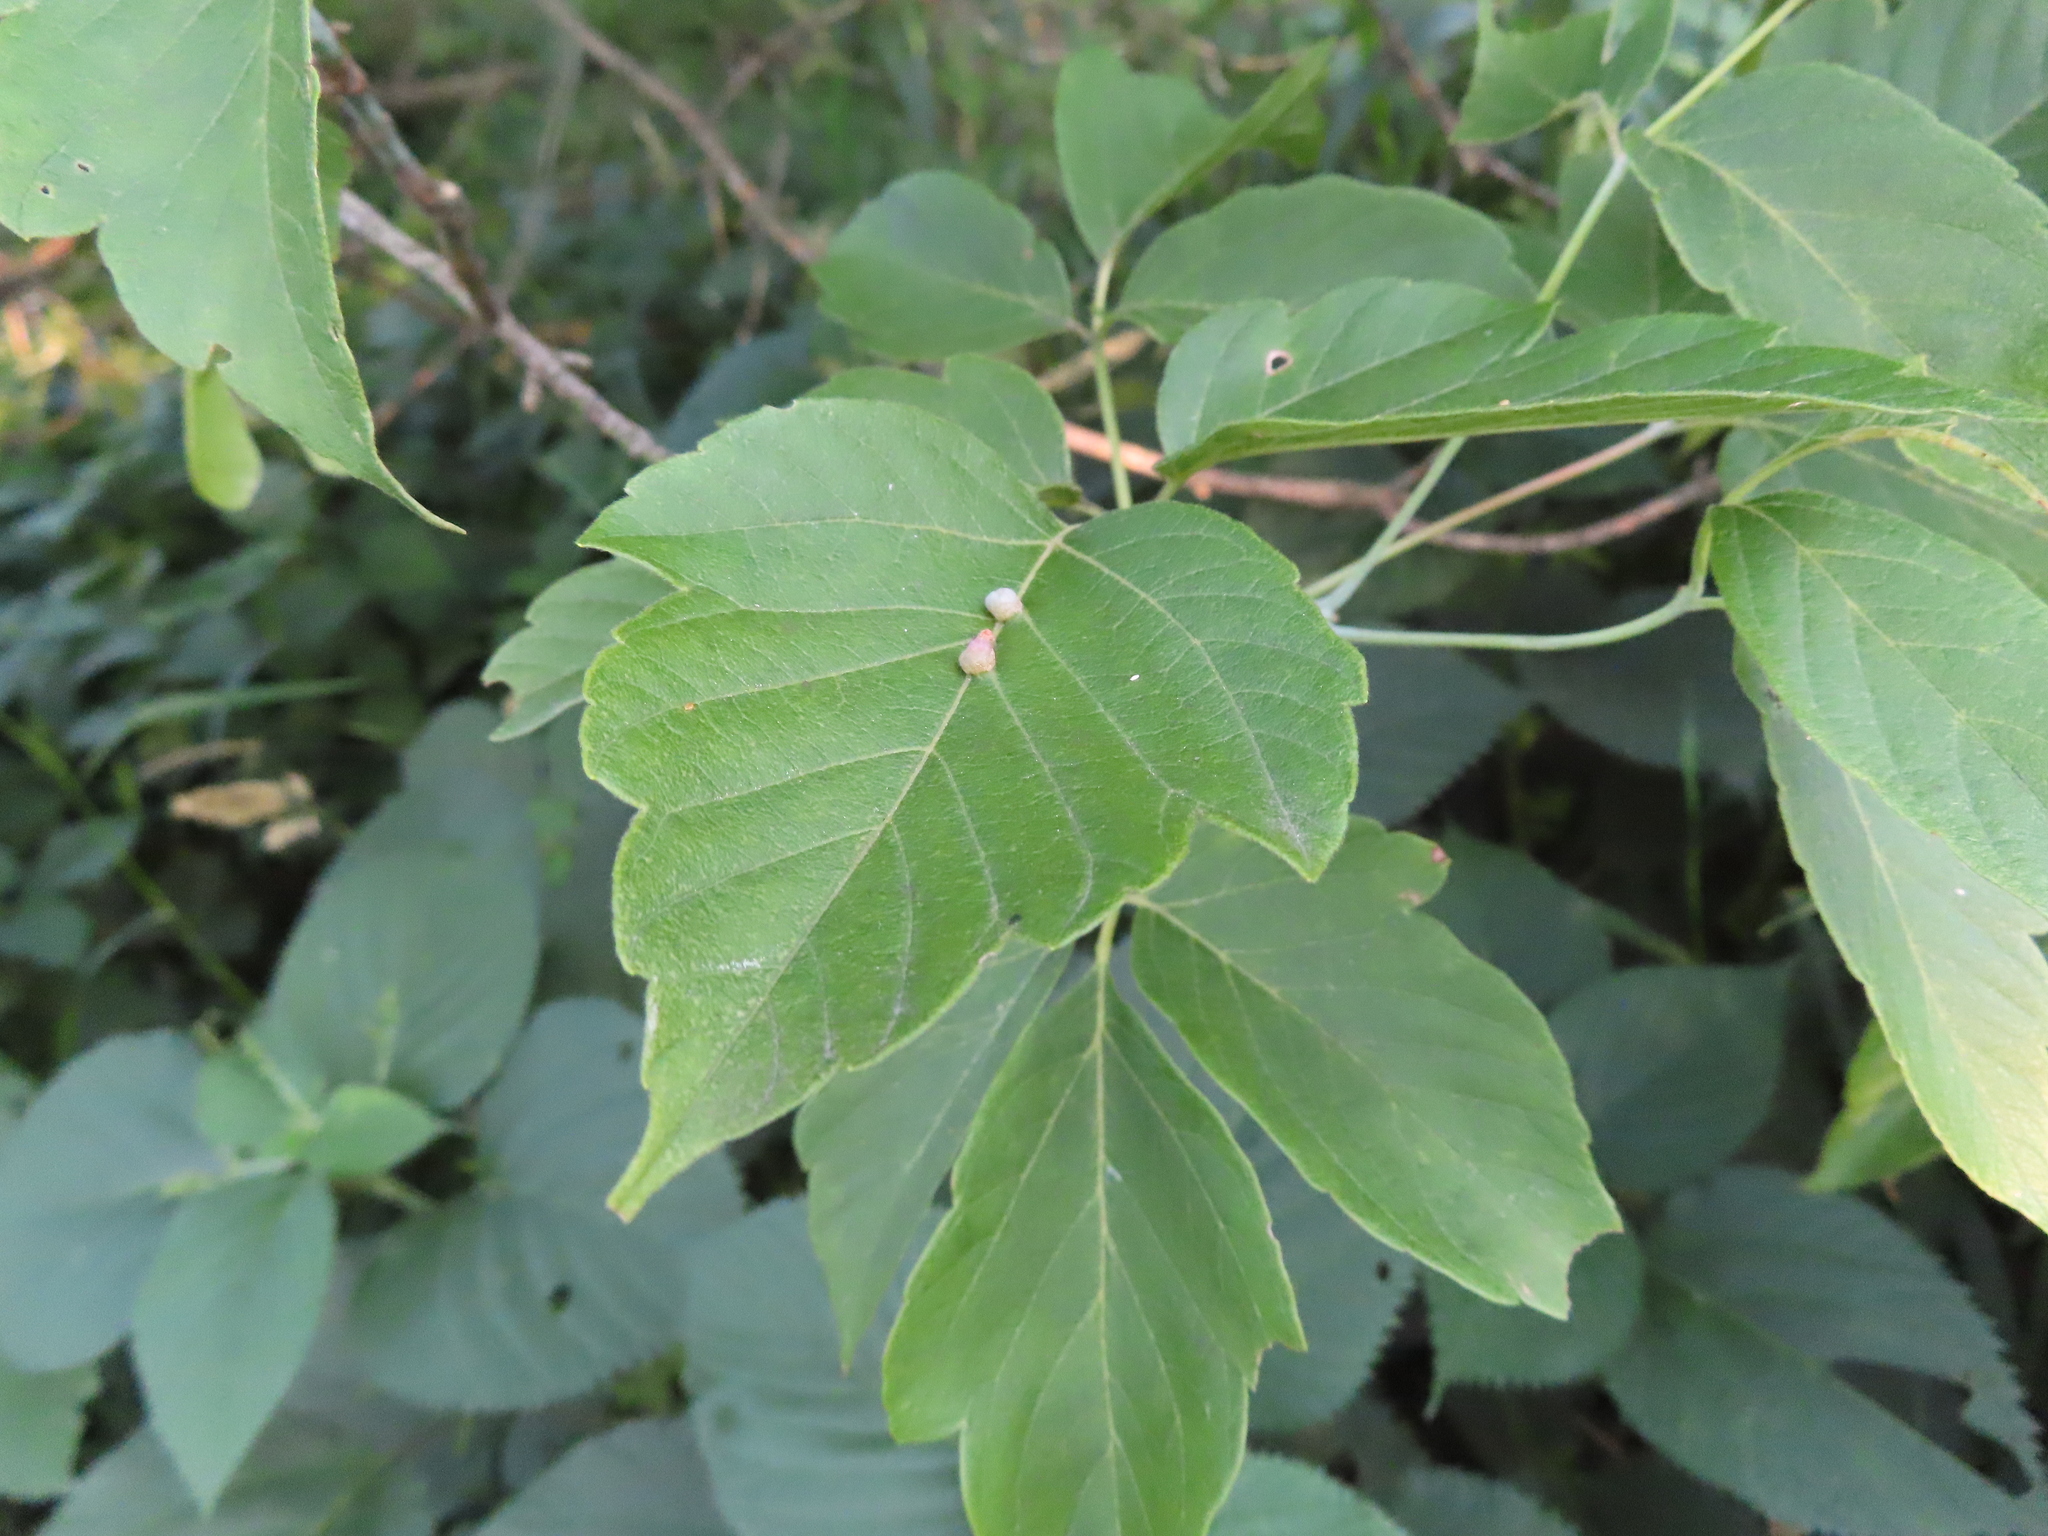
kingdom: Plantae
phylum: Tracheophyta
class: Magnoliopsida
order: Sapindales
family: Sapindaceae
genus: Acer
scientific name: Acer negundo
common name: Ashleaf maple
